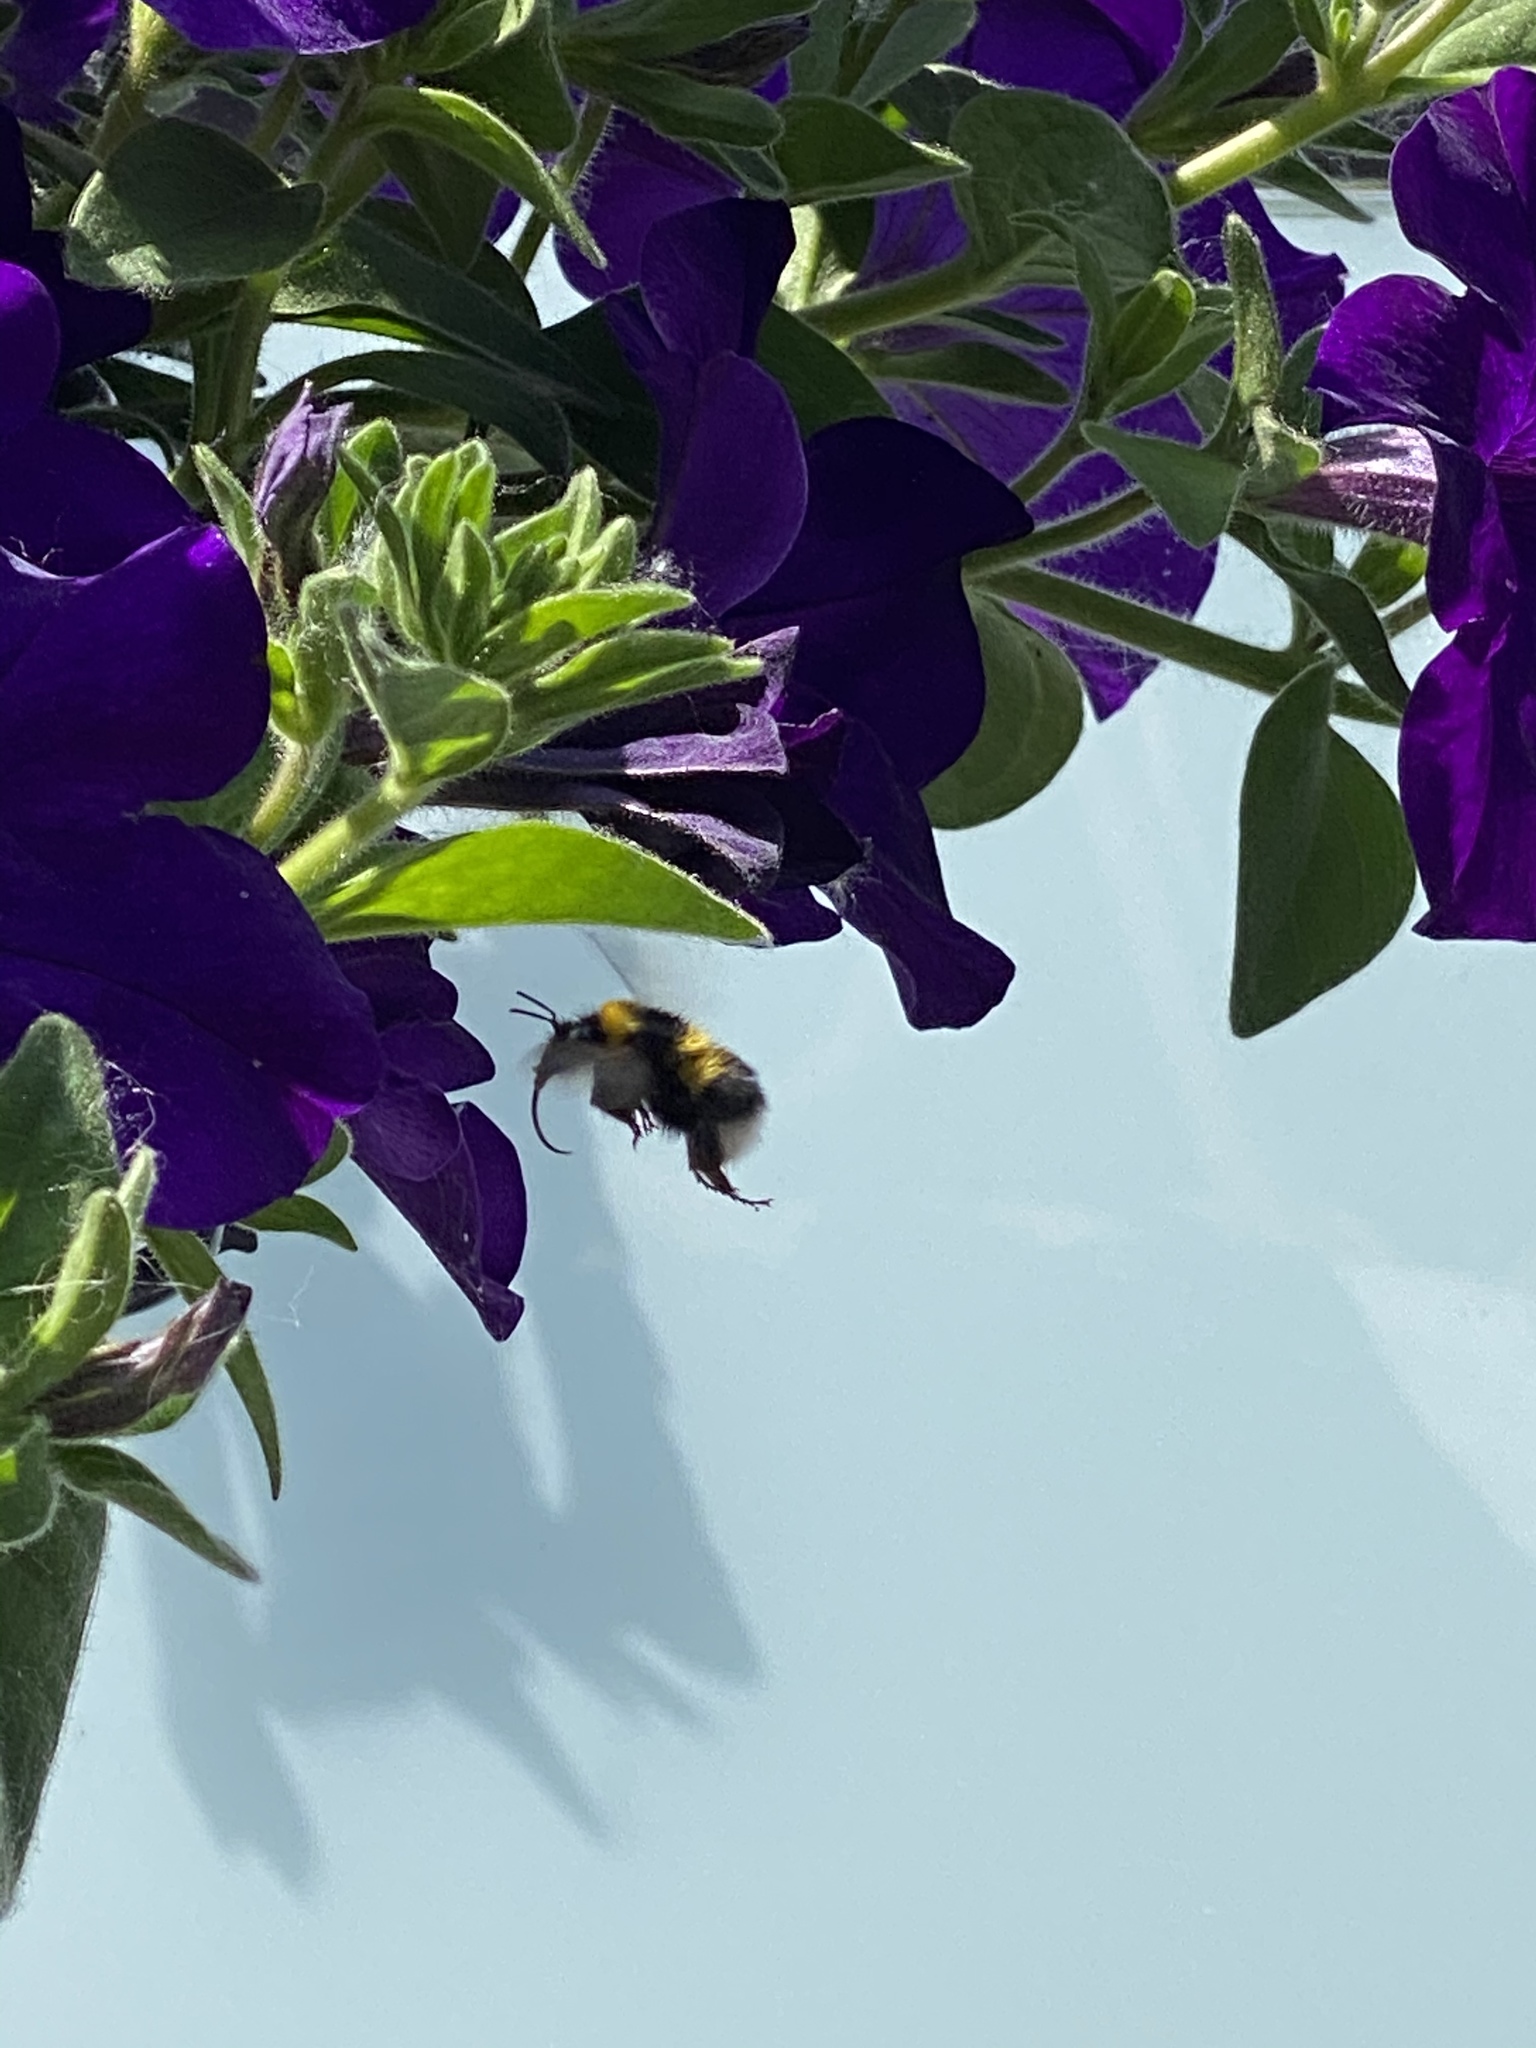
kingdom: Animalia
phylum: Arthropoda
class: Insecta
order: Hymenoptera
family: Apidae
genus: Bombus
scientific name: Bombus hortorum
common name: Garden bumblebee
